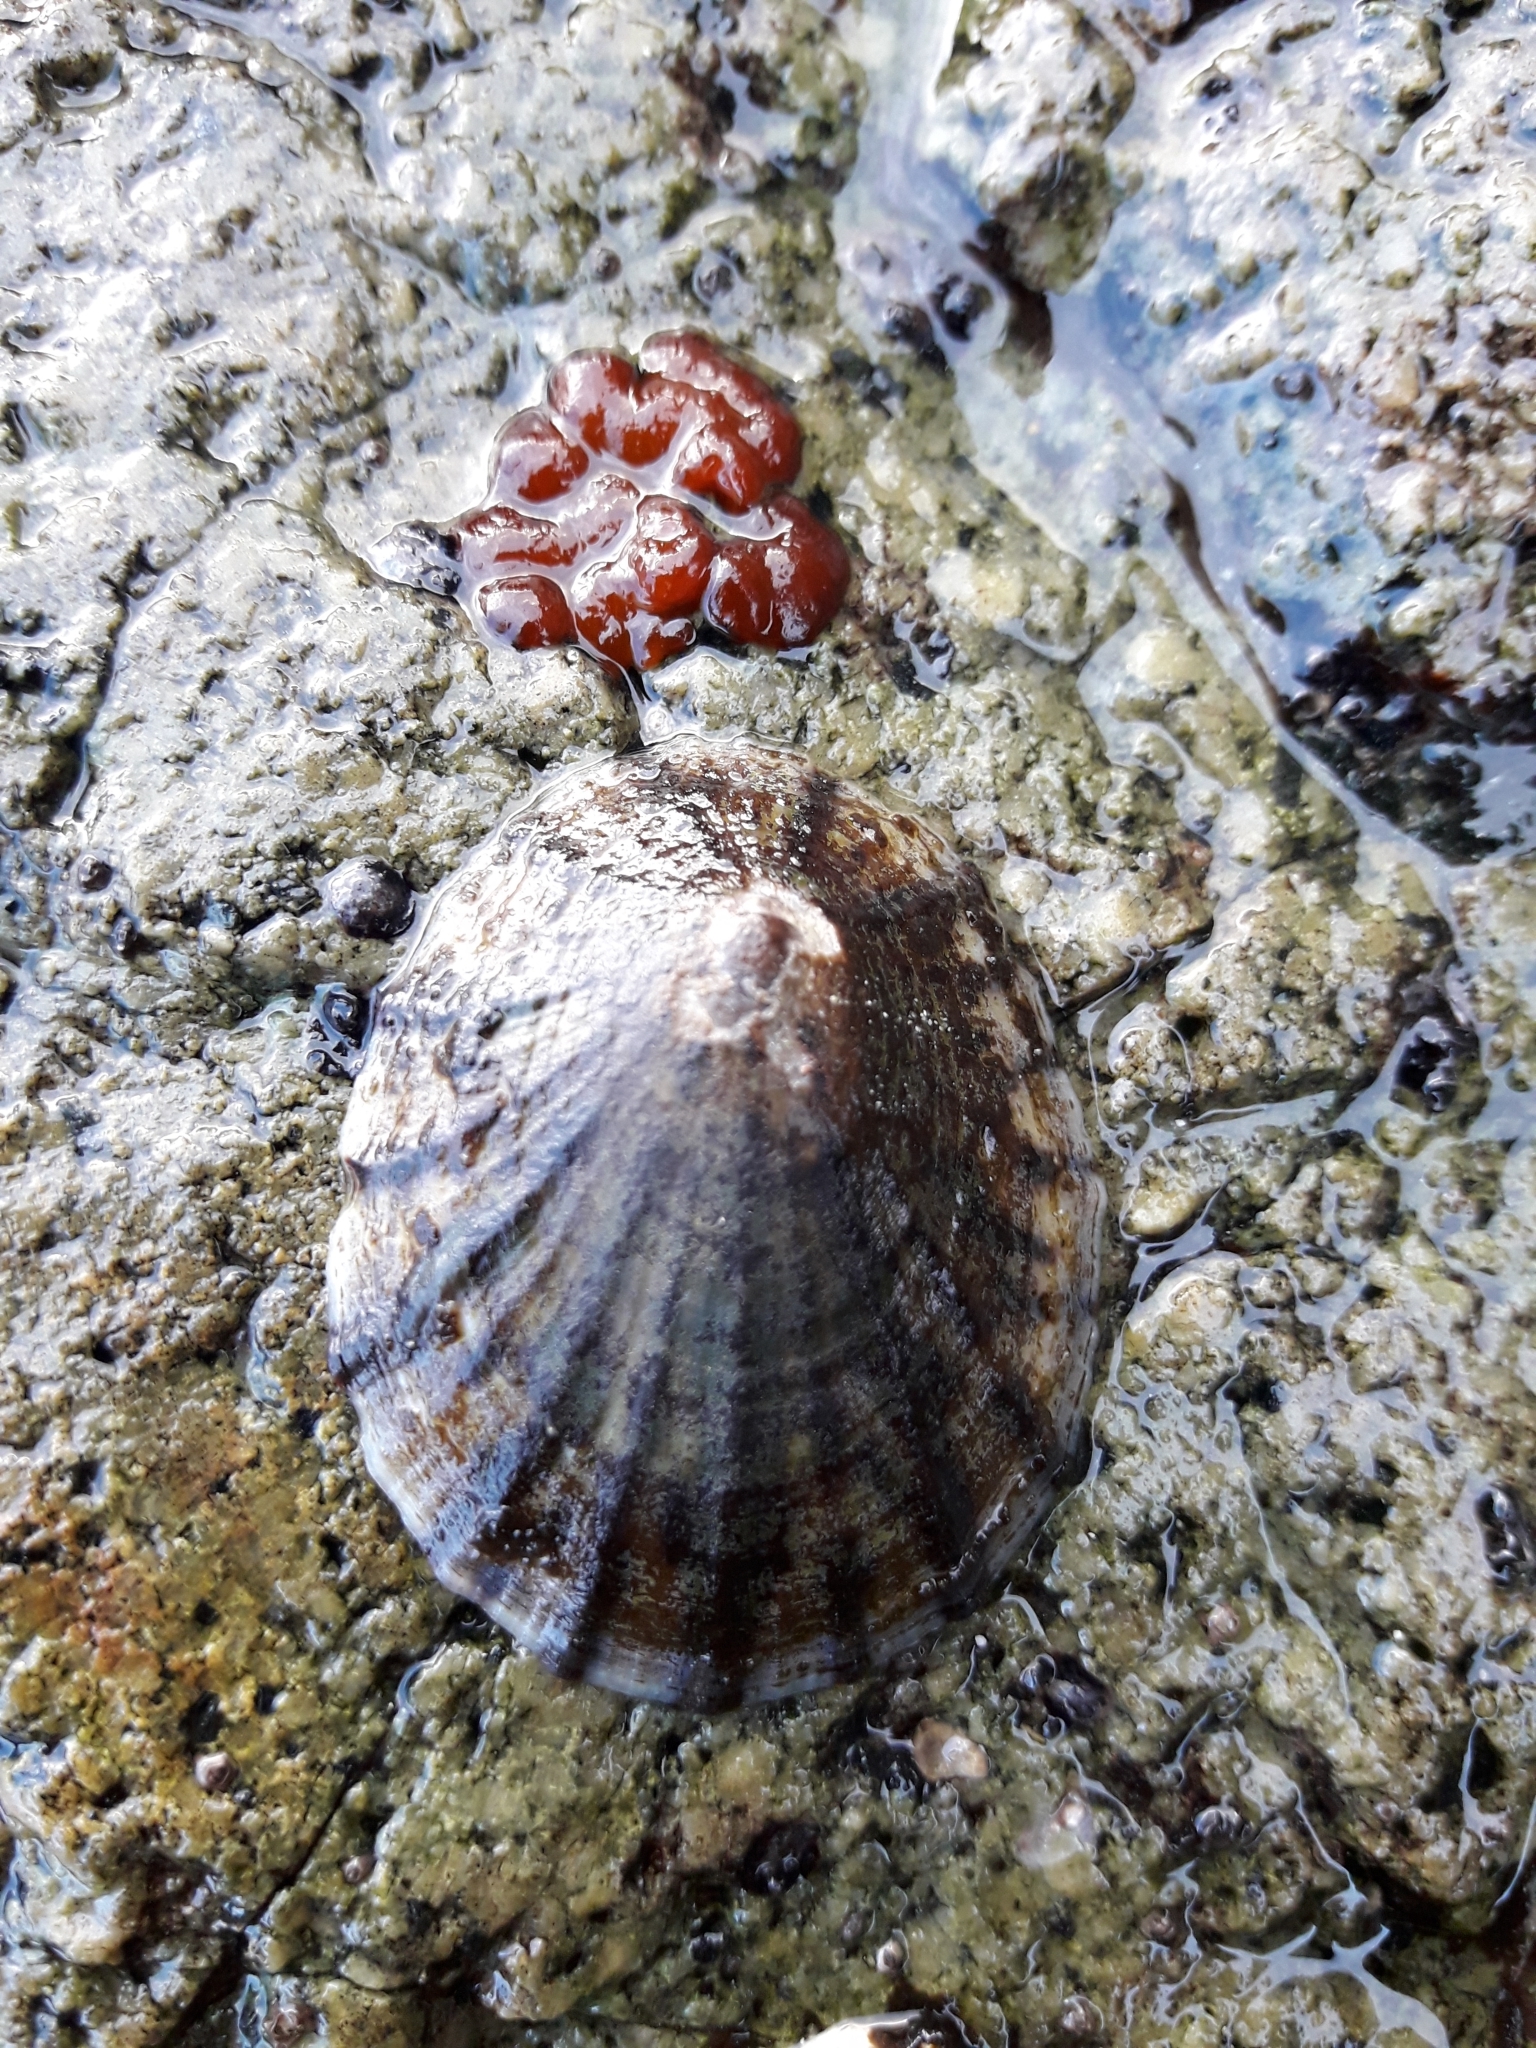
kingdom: Animalia
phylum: Mollusca
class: Gastropoda
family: Nacellidae
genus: Cellana
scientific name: Cellana radians
